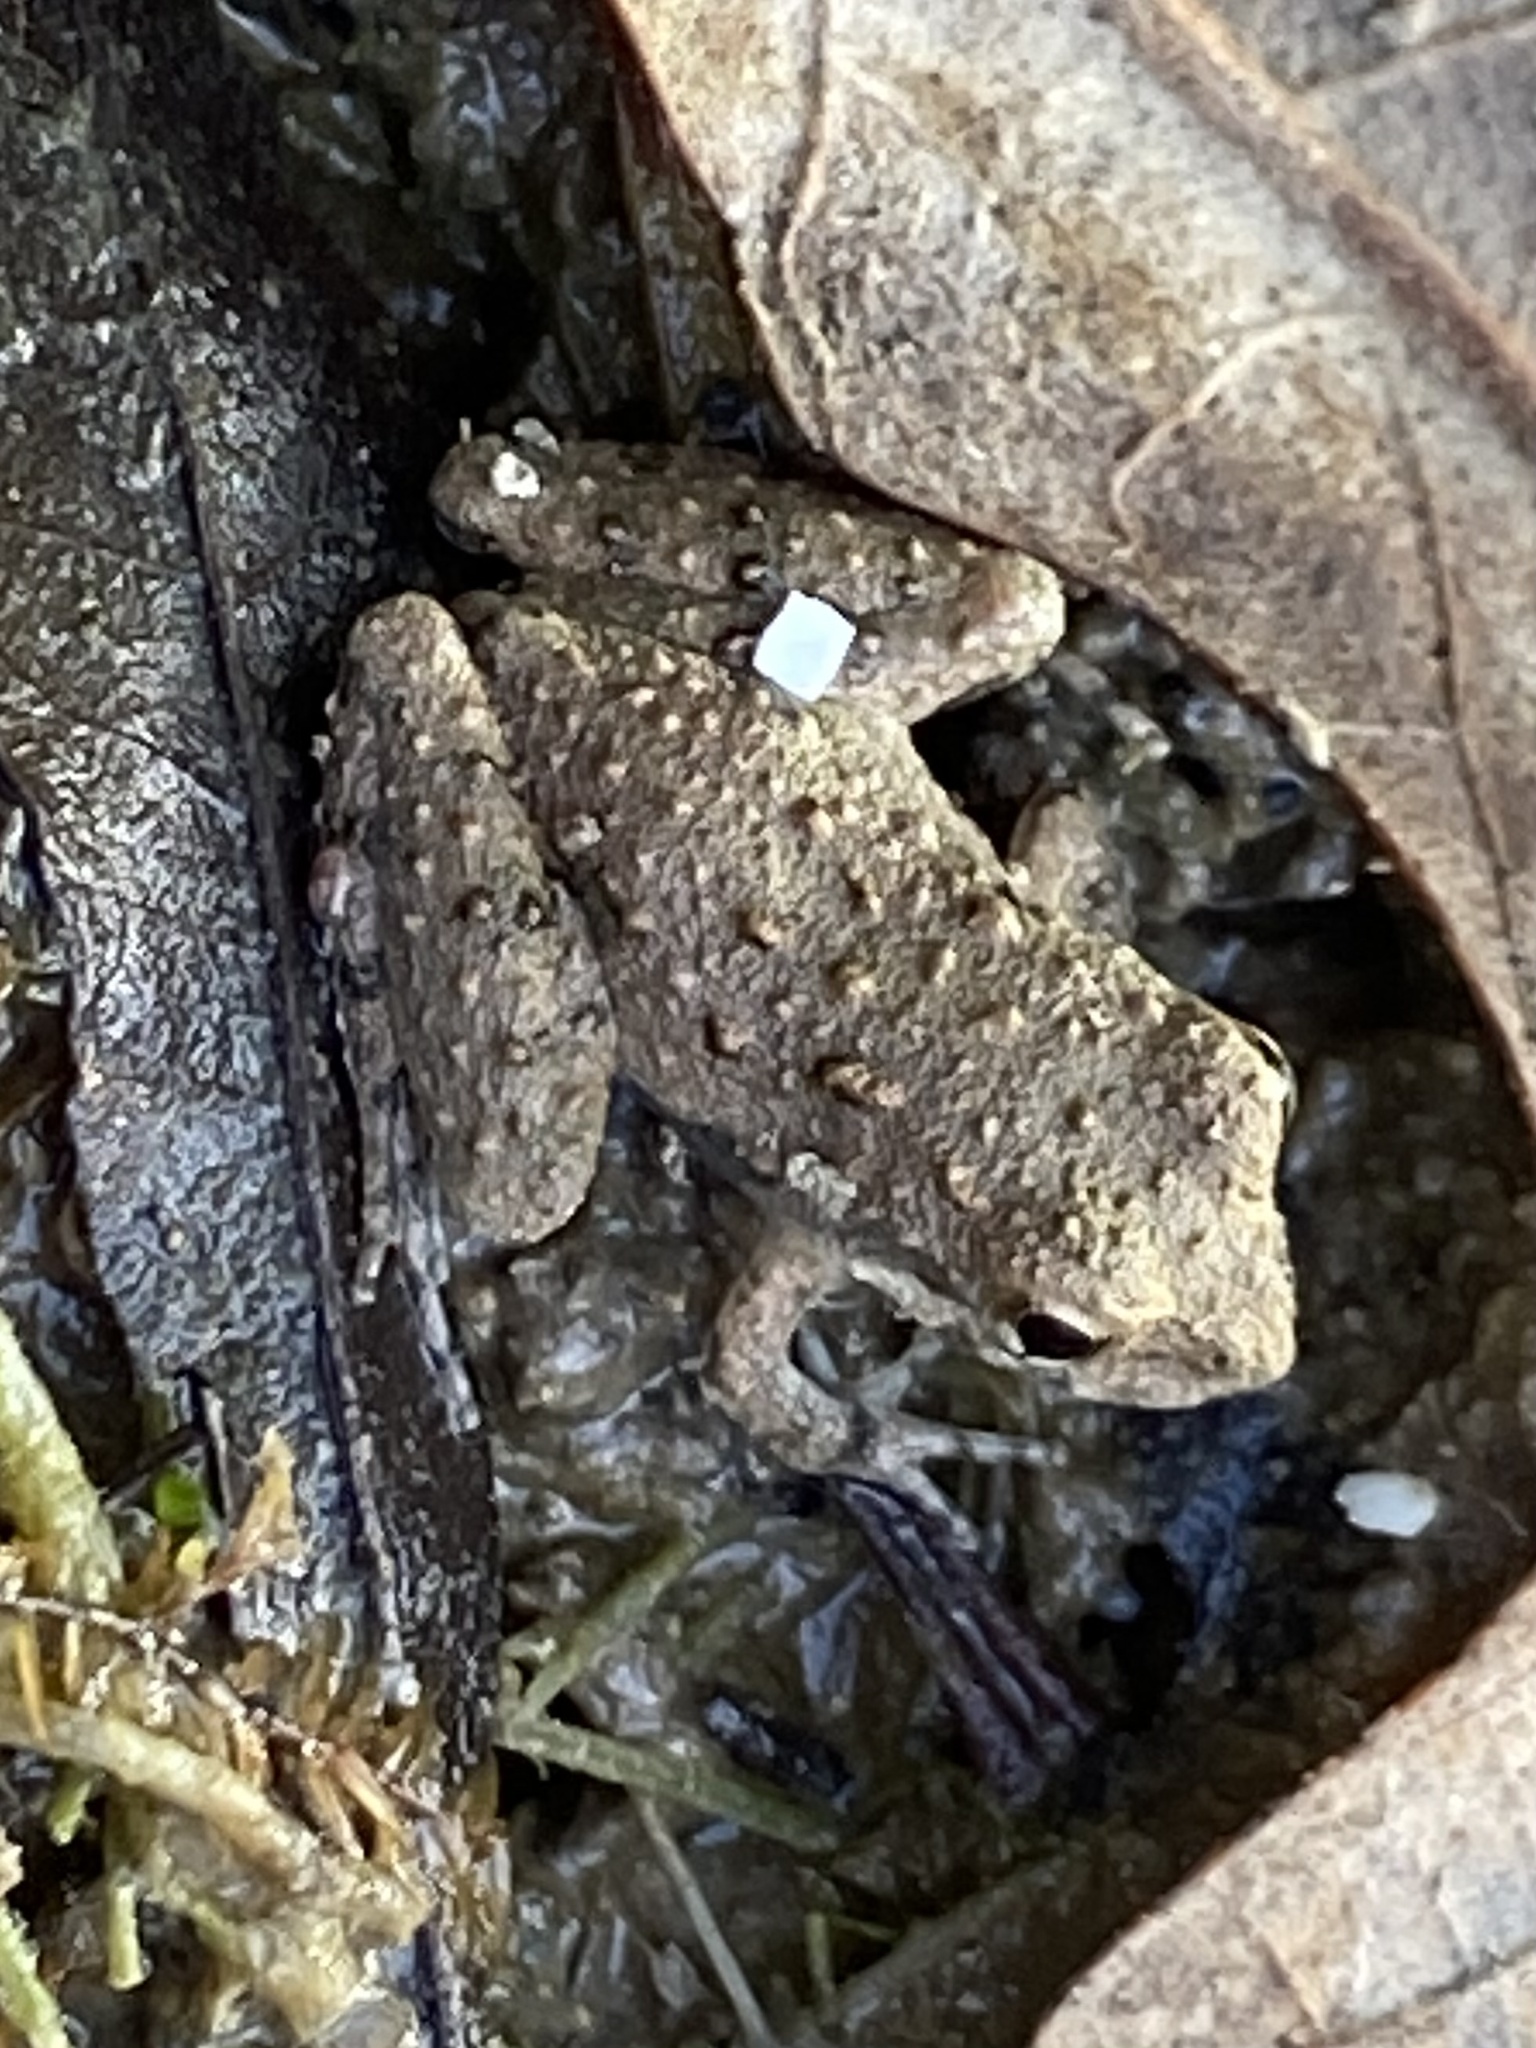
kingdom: Animalia
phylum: Chordata
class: Amphibia
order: Anura
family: Hylidae
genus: Acris
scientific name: Acris blanchardi
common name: Blanchard's cricket frog
